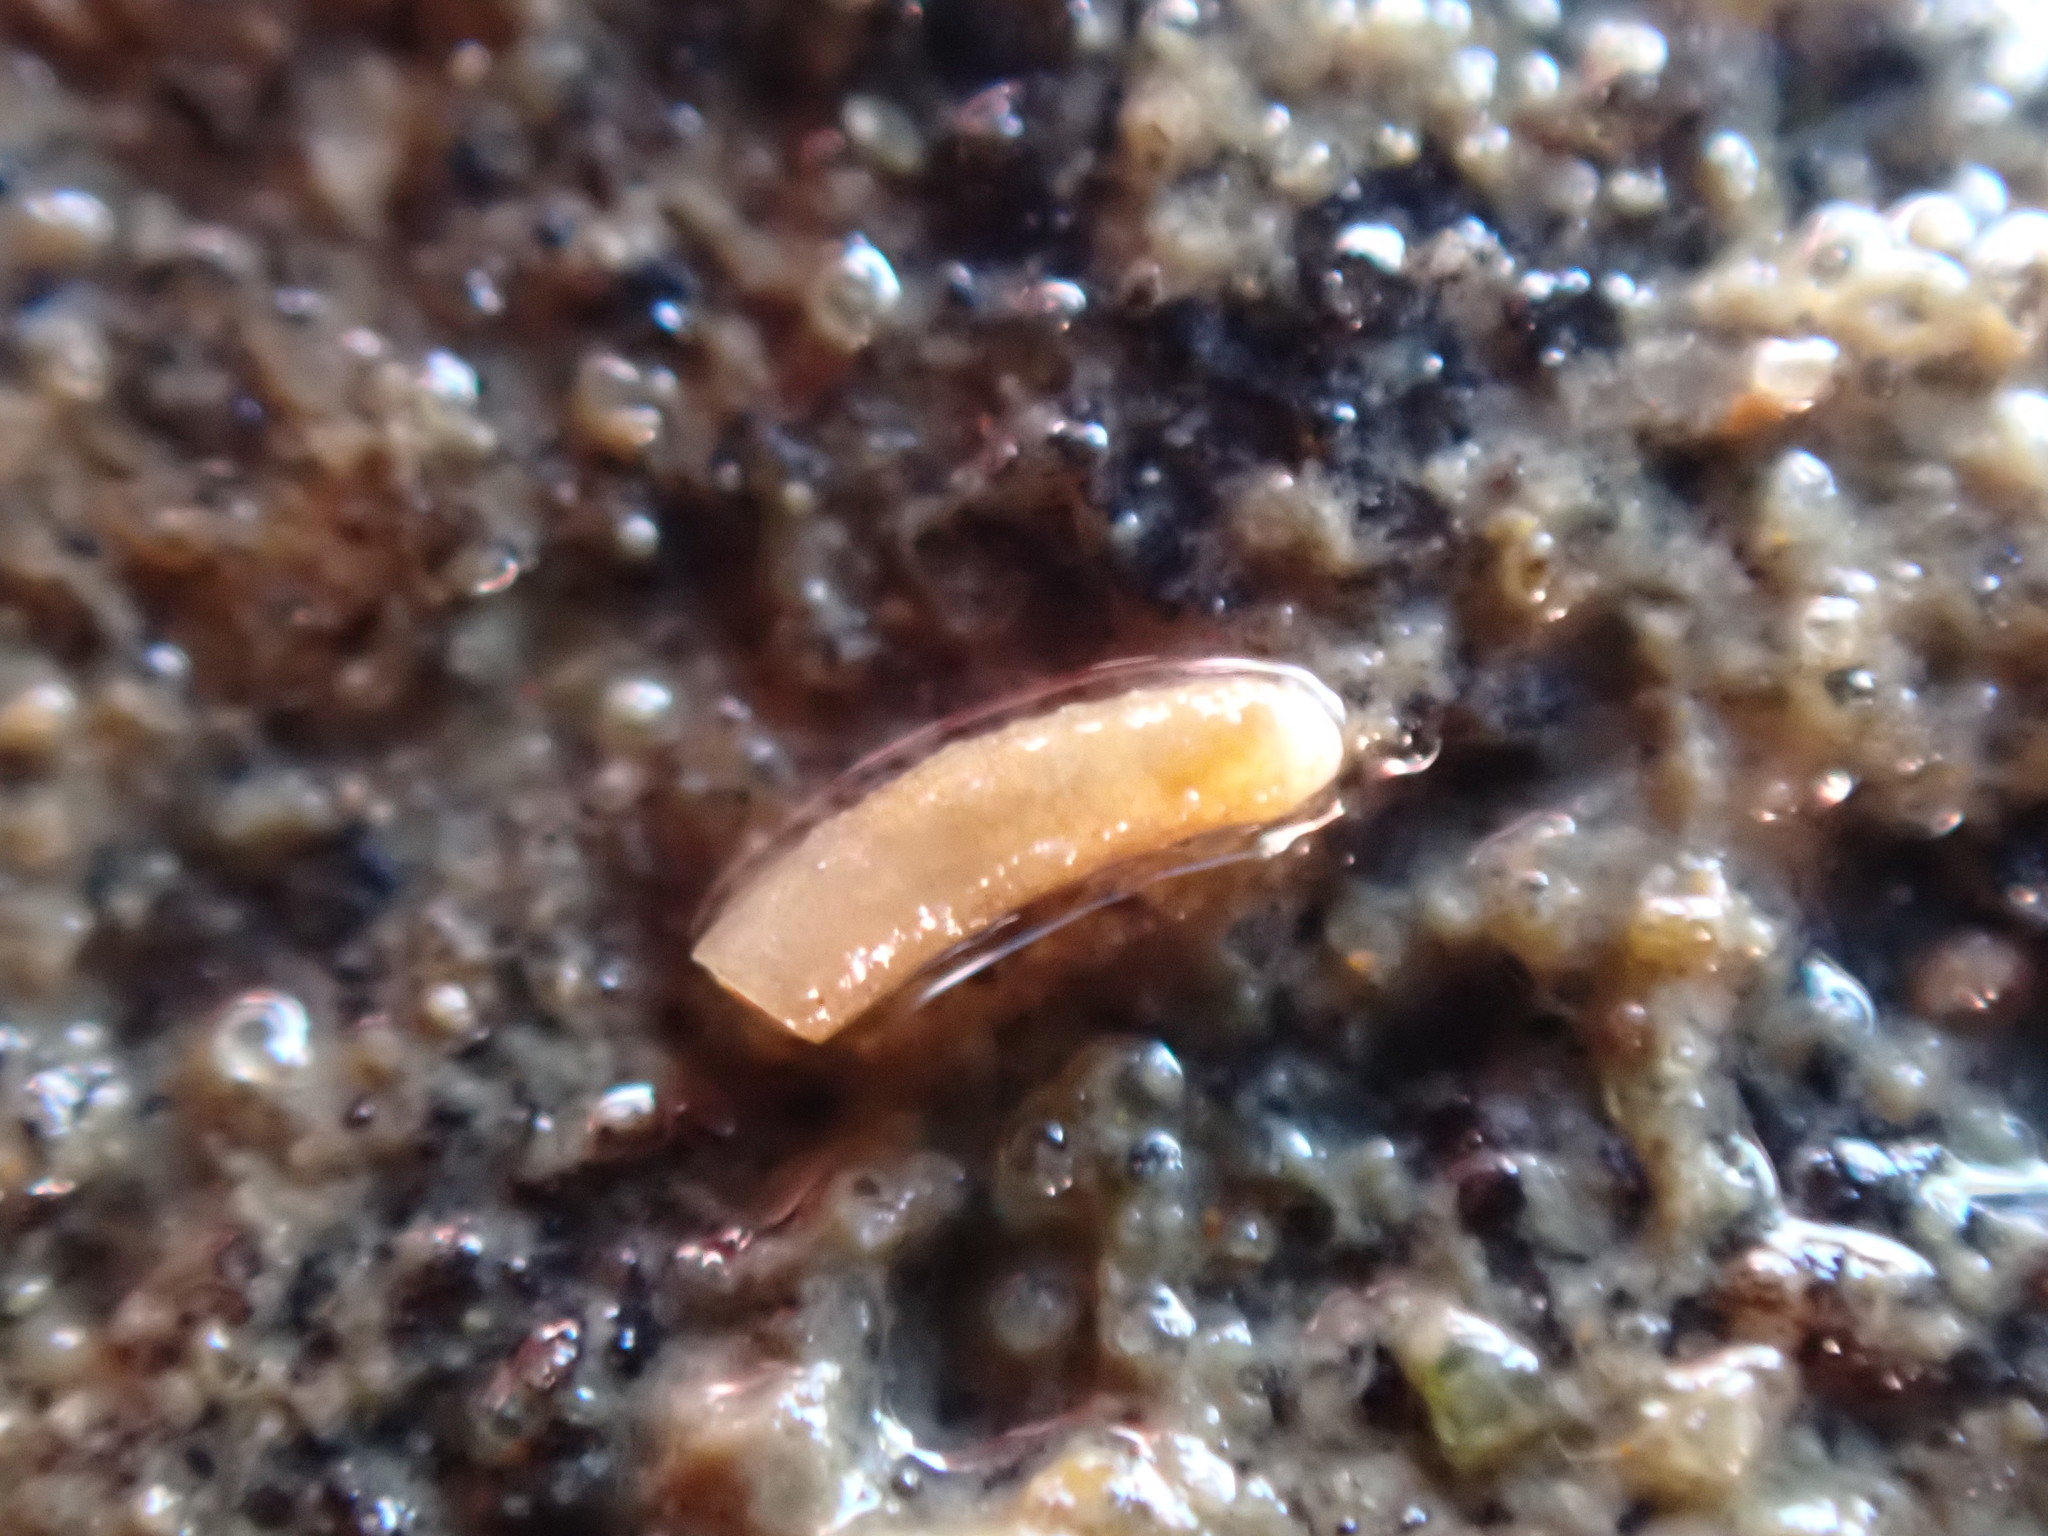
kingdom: Animalia
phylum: Mollusca
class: Gastropoda
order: Littorinimorpha
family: Caecidae
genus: Caecum
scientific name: Caecum
